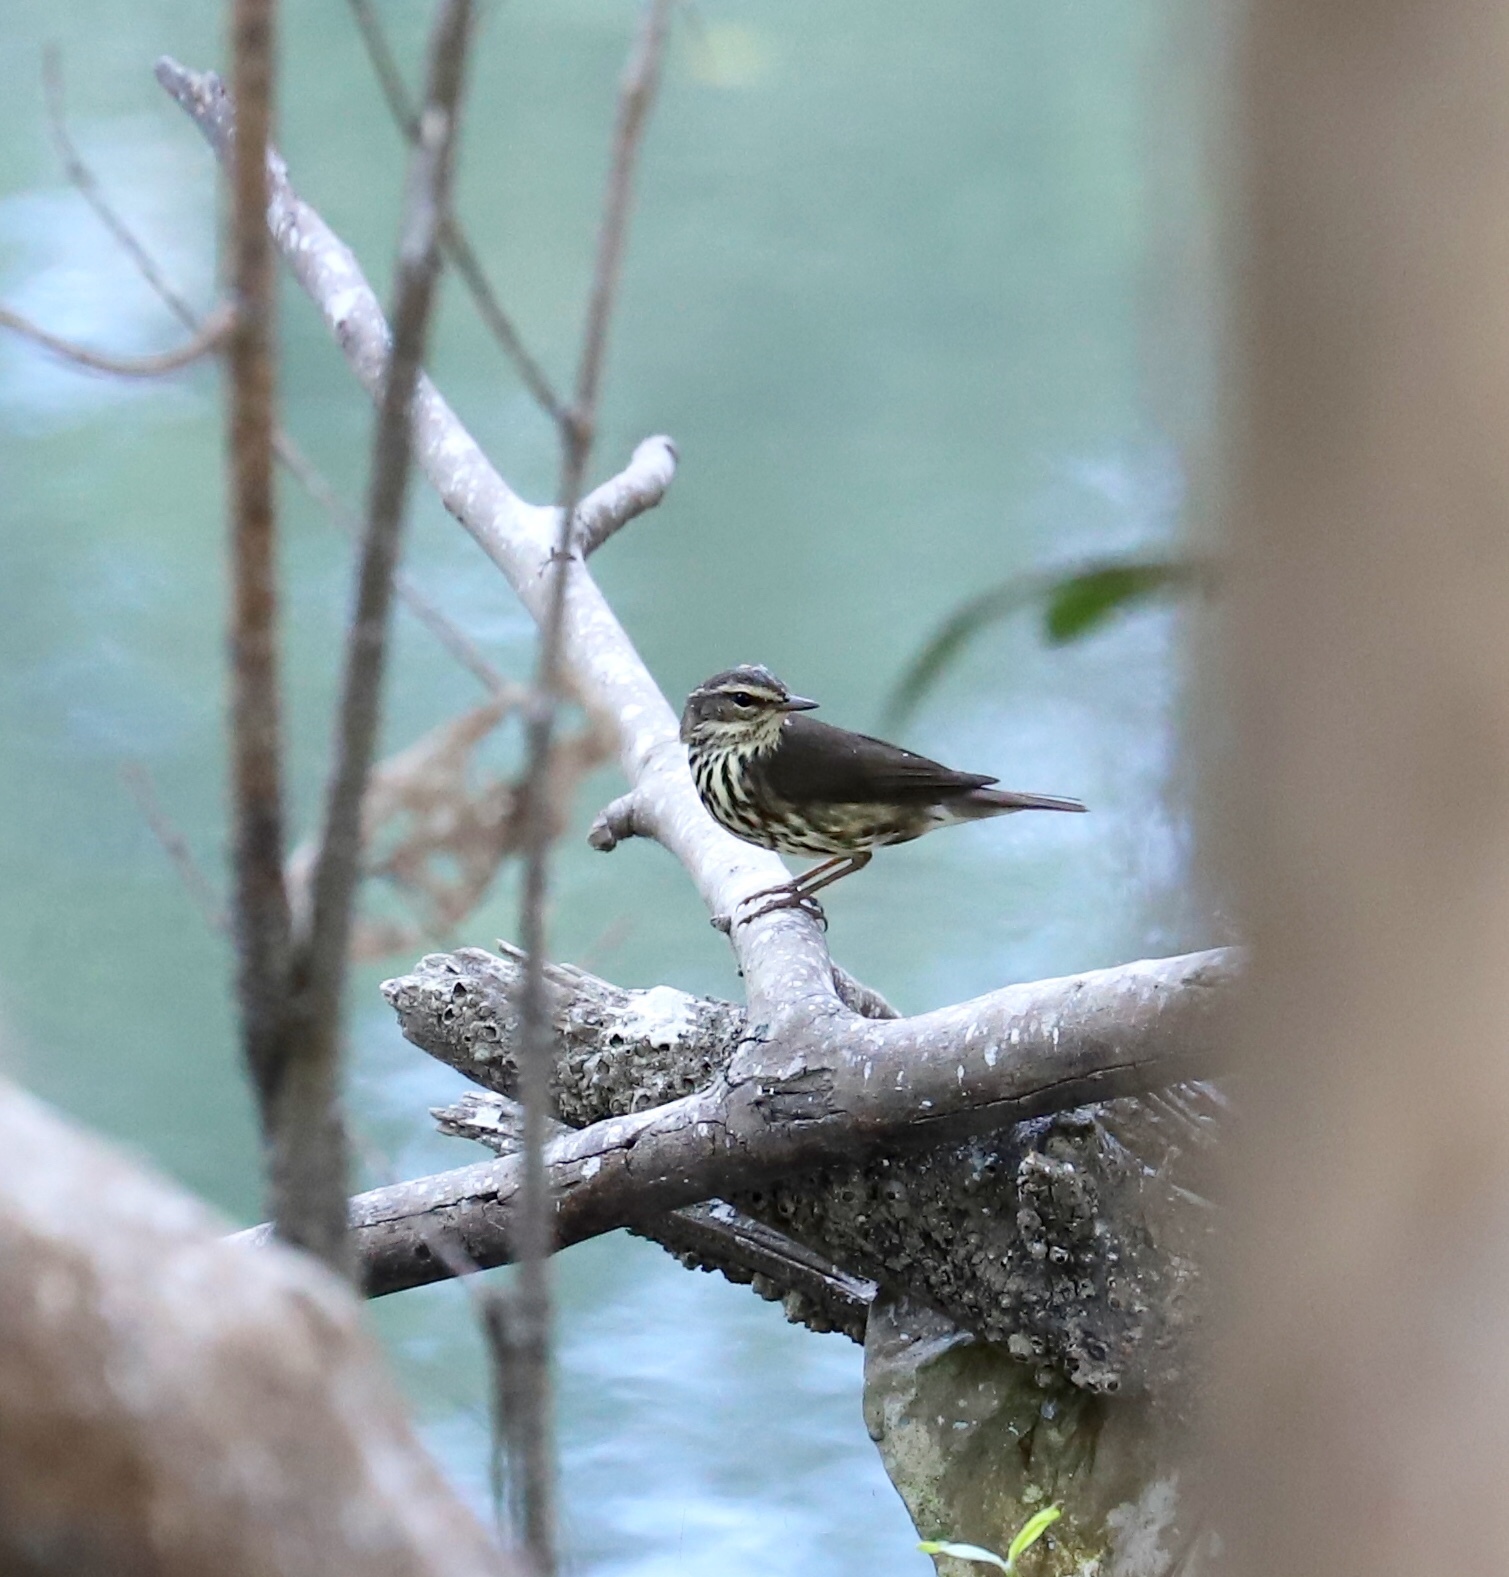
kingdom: Animalia
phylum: Chordata
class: Aves
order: Passeriformes
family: Parulidae
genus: Parkesia
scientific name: Parkesia noveboracensis
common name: Northern waterthrush
